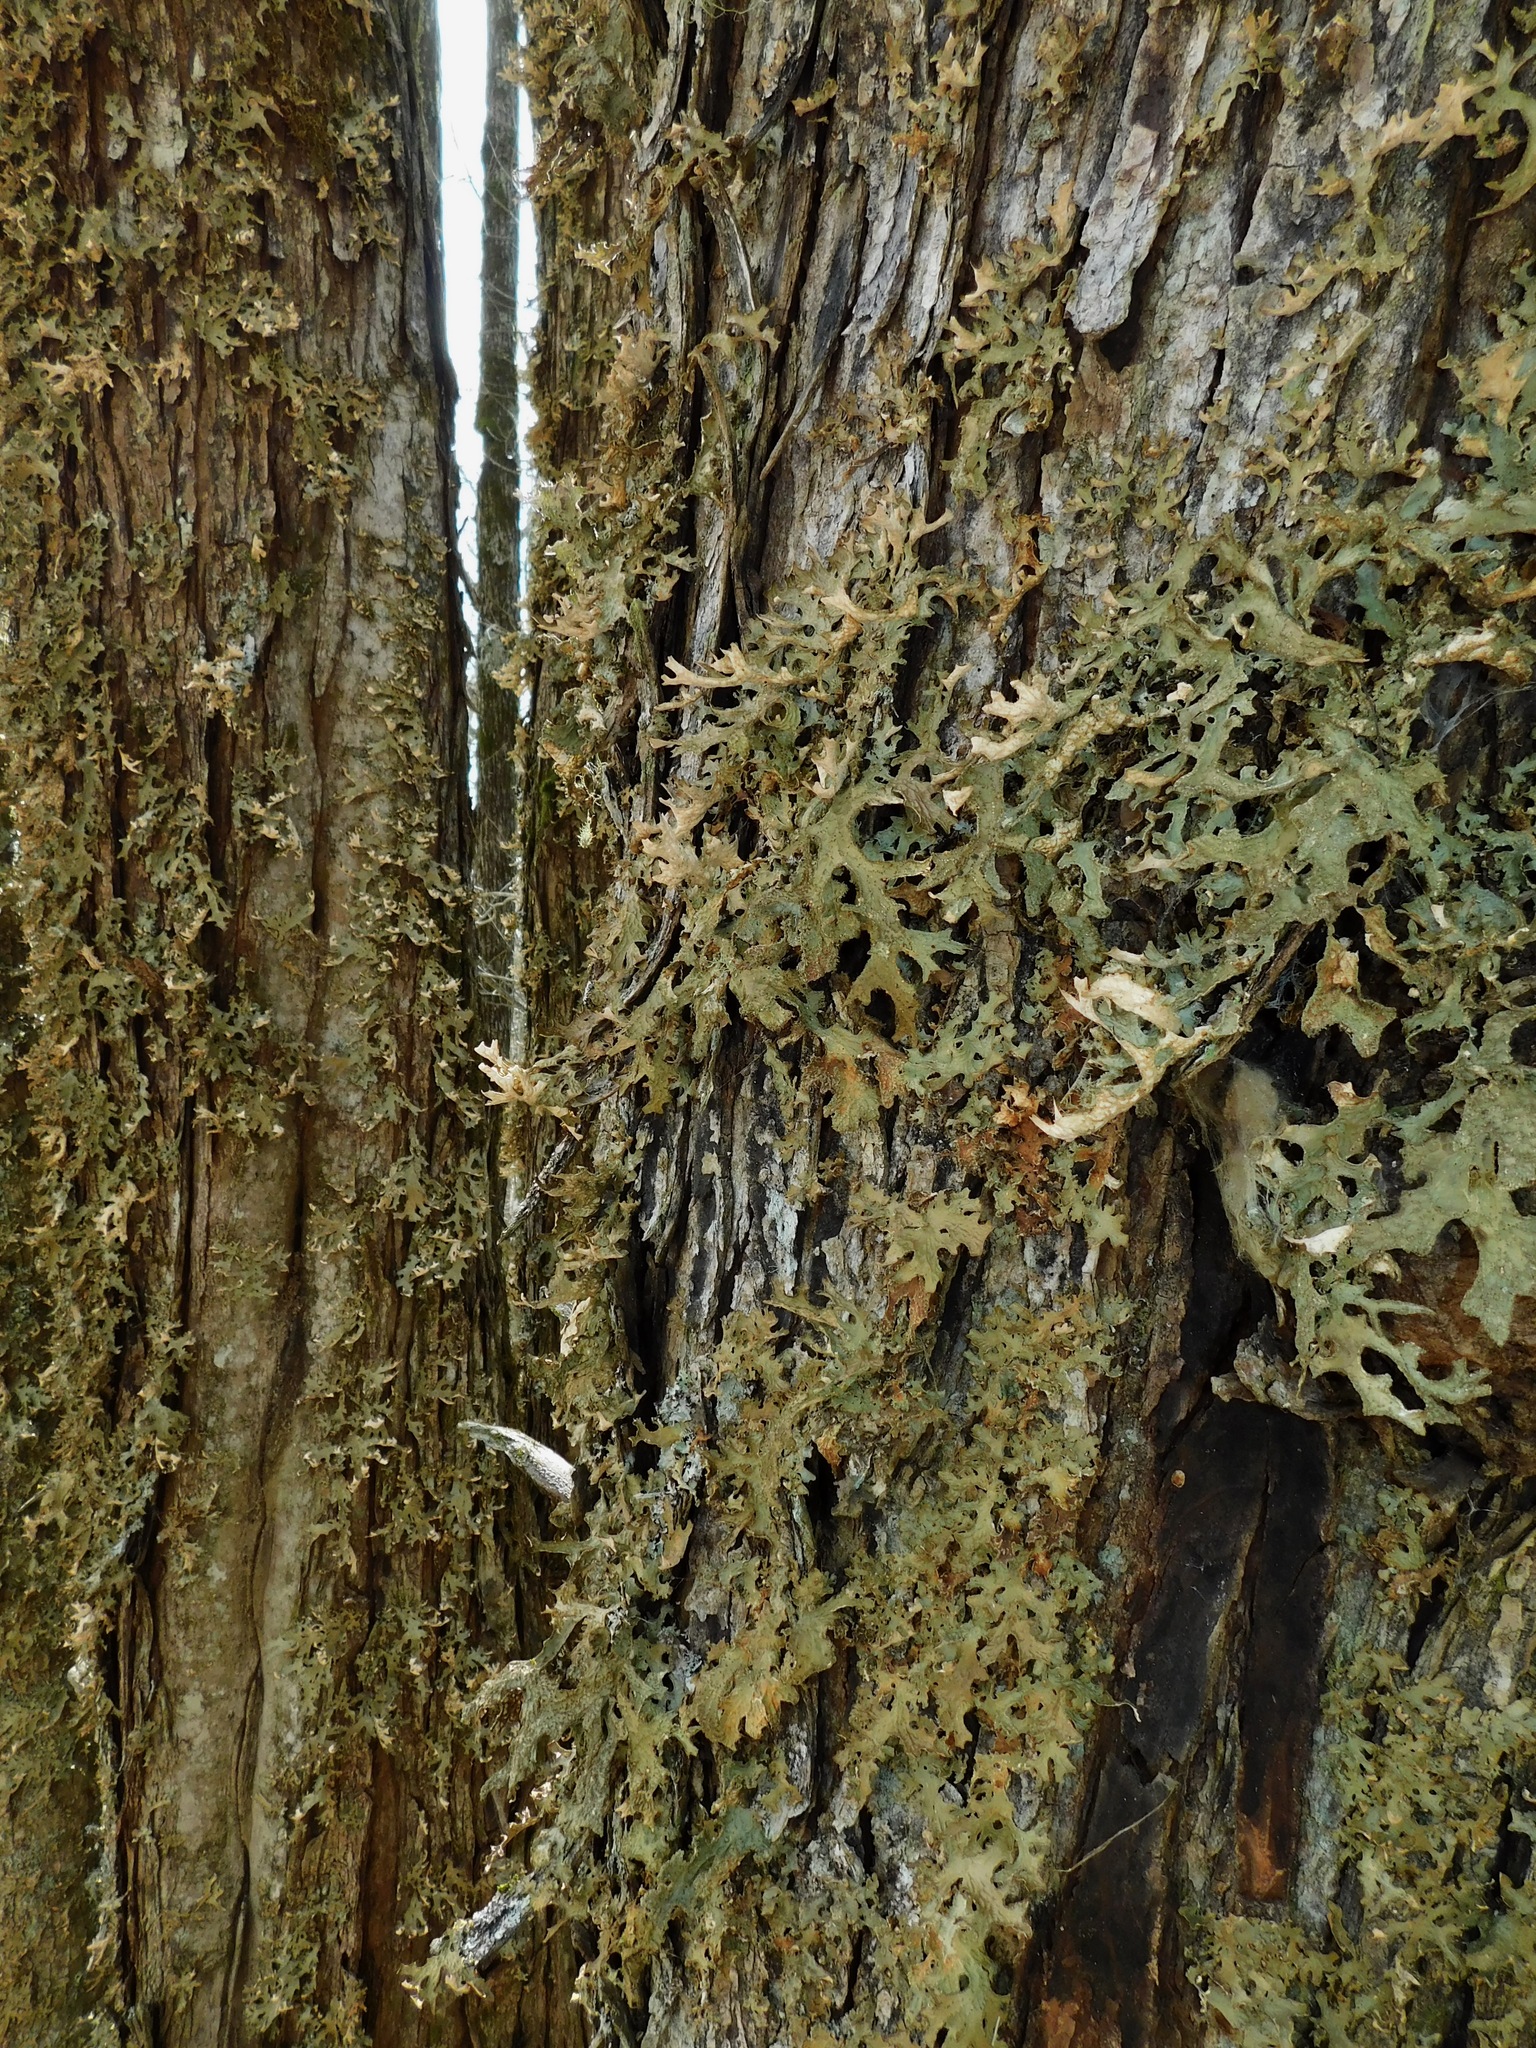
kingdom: Fungi
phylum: Ascomycota
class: Arthoniomycetes
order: Arthoniales
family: Lecanographaceae
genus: Plectocarpon
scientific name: Plectocarpon lichenum
